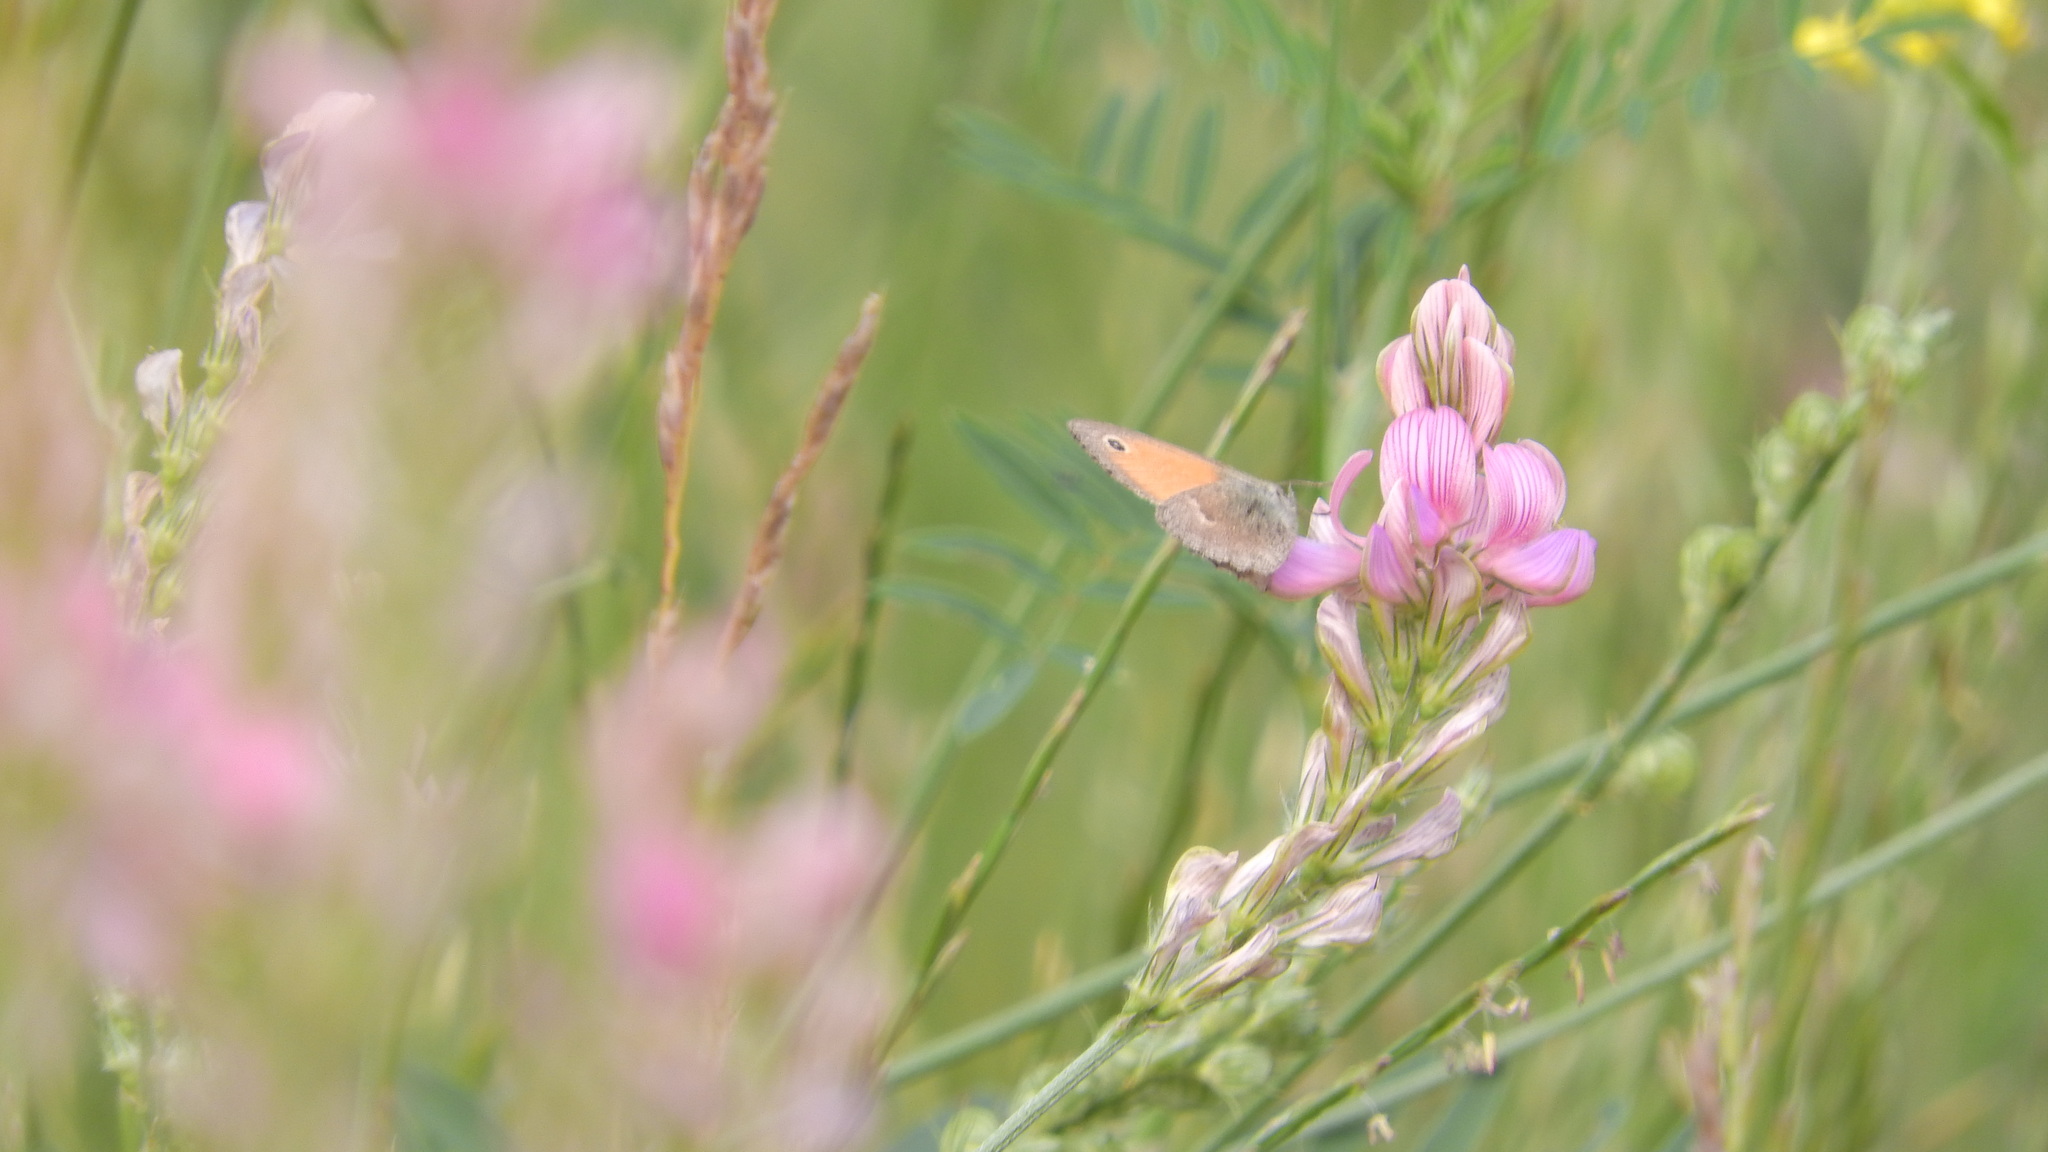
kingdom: Animalia
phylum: Arthropoda
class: Insecta
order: Lepidoptera
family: Nymphalidae
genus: Coenonympha
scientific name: Coenonympha pamphilus
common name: Small heath
